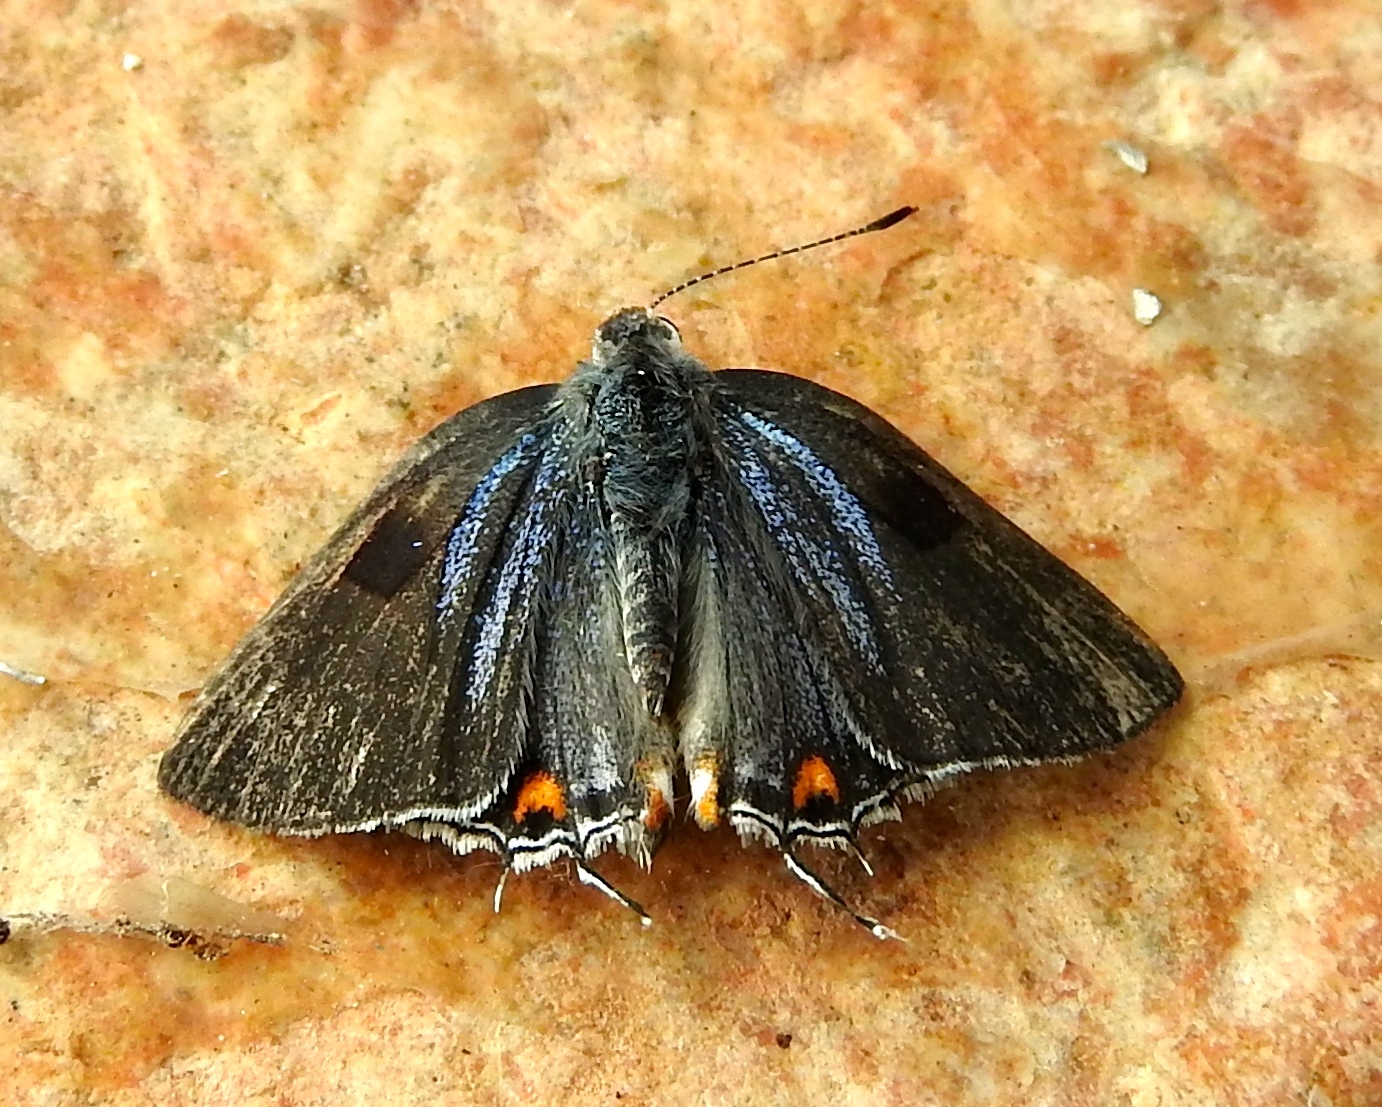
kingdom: Animalia
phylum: Arthropoda
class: Insecta
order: Lepidoptera
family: Lycaenidae
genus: Thecla
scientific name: Thecla megarus
